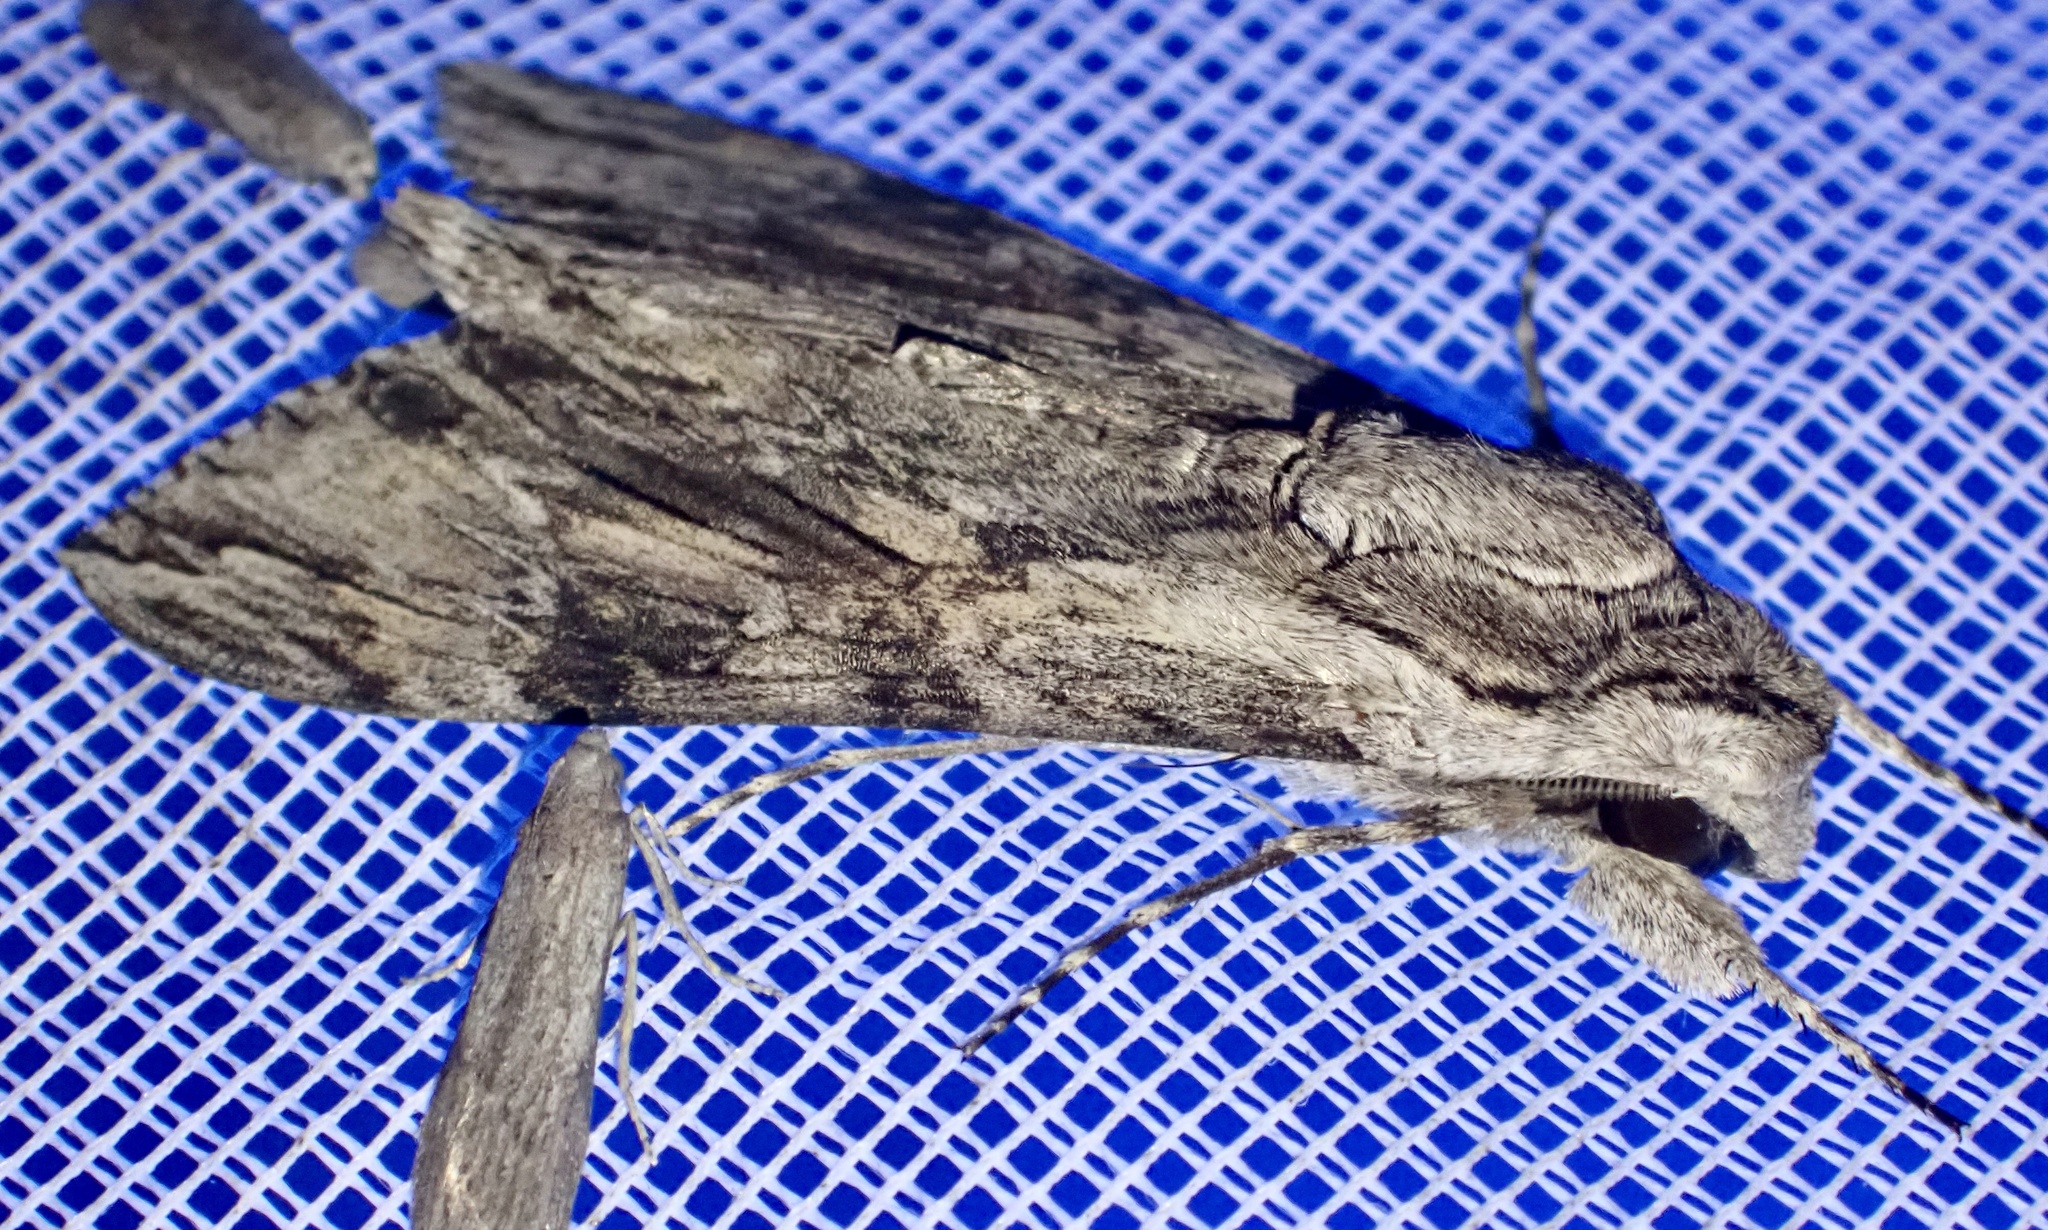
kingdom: Animalia
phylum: Arthropoda
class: Insecta
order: Lepidoptera
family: Sphingidae
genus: Agrius
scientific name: Agrius convolvuli
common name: Convolvulus hawkmoth
